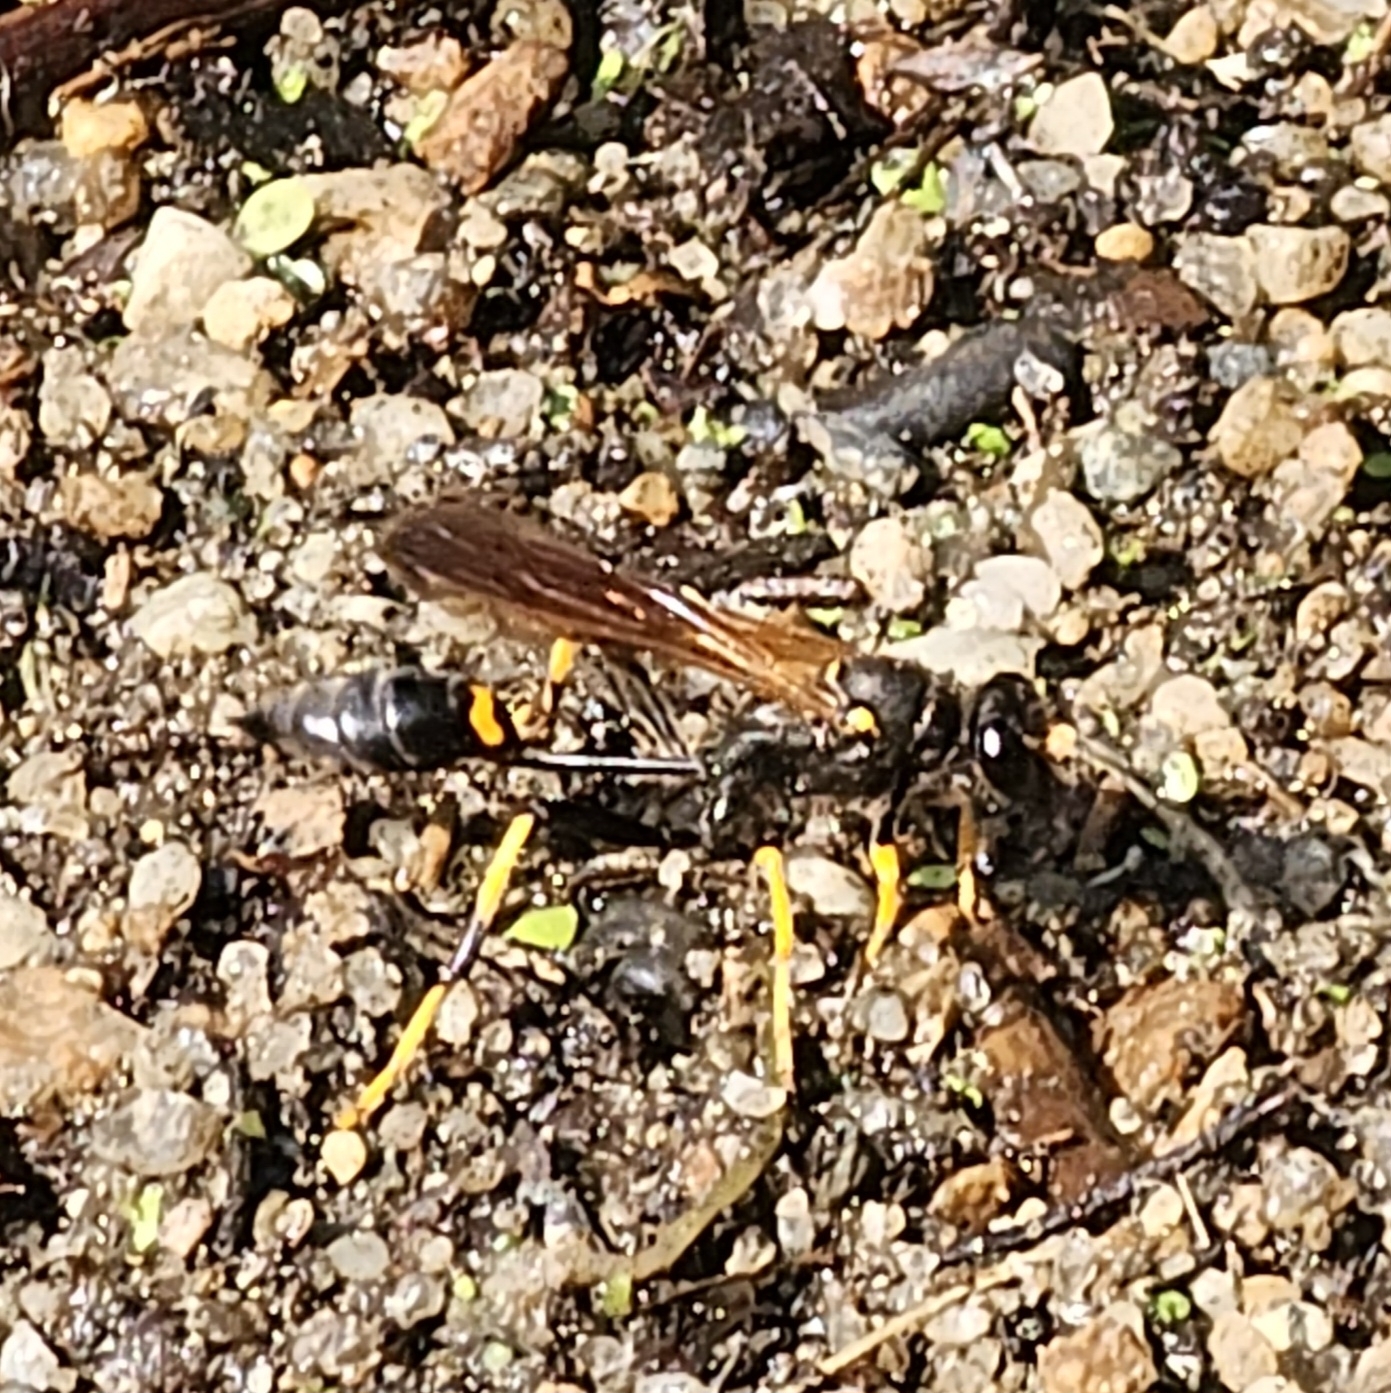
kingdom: Animalia
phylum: Arthropoda
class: Insecta
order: Hymenoptera
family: Sphecidae
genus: Sceliphron
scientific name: Sceliphron caementarium
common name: Mud dauber
